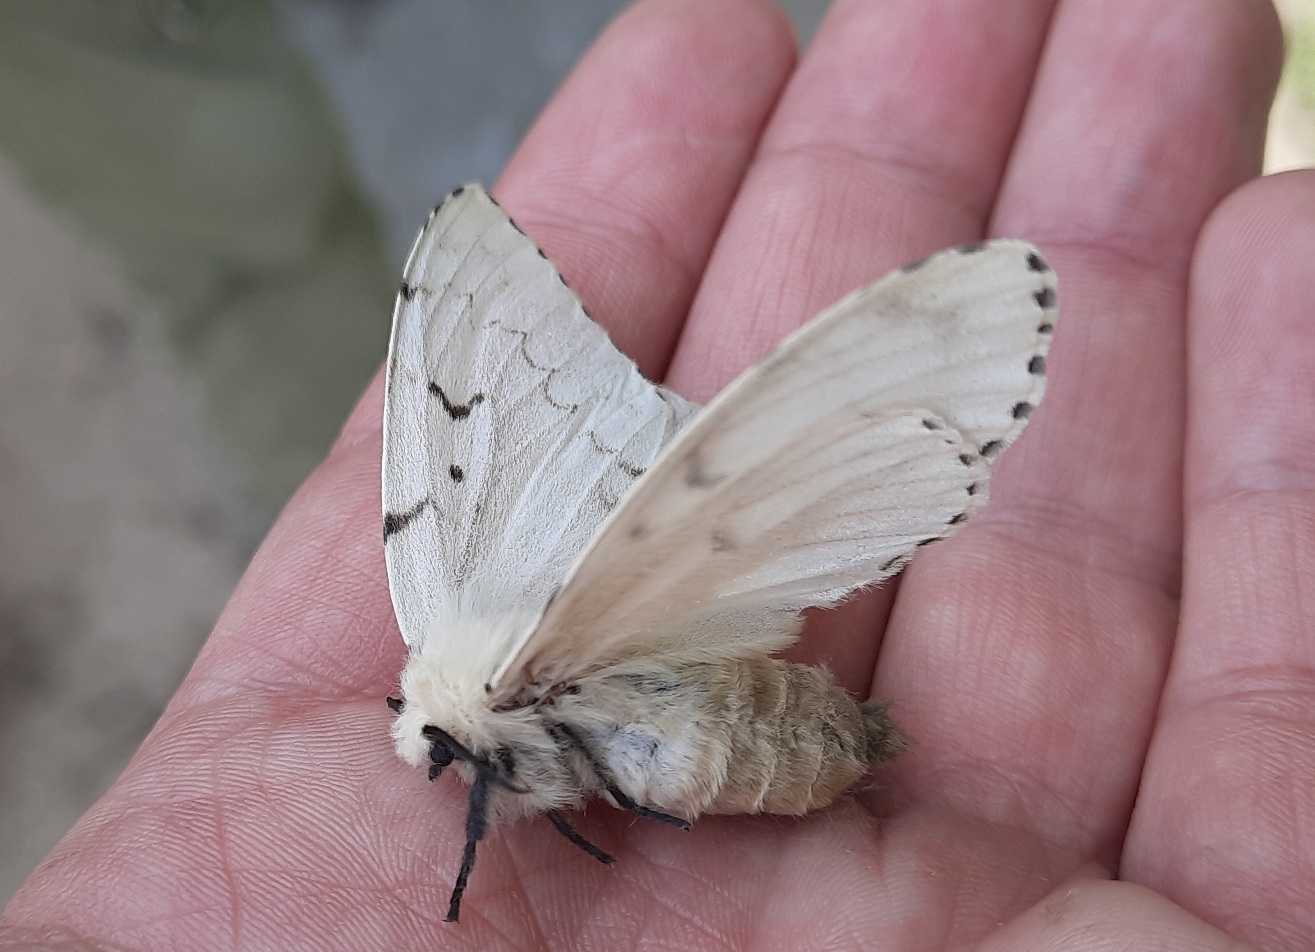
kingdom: Animalia
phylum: Arthropoda
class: Insecta
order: Lepidoptera
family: Erebidae
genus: Lymantria
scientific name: Lymantria dispar
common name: Gypsy moth
